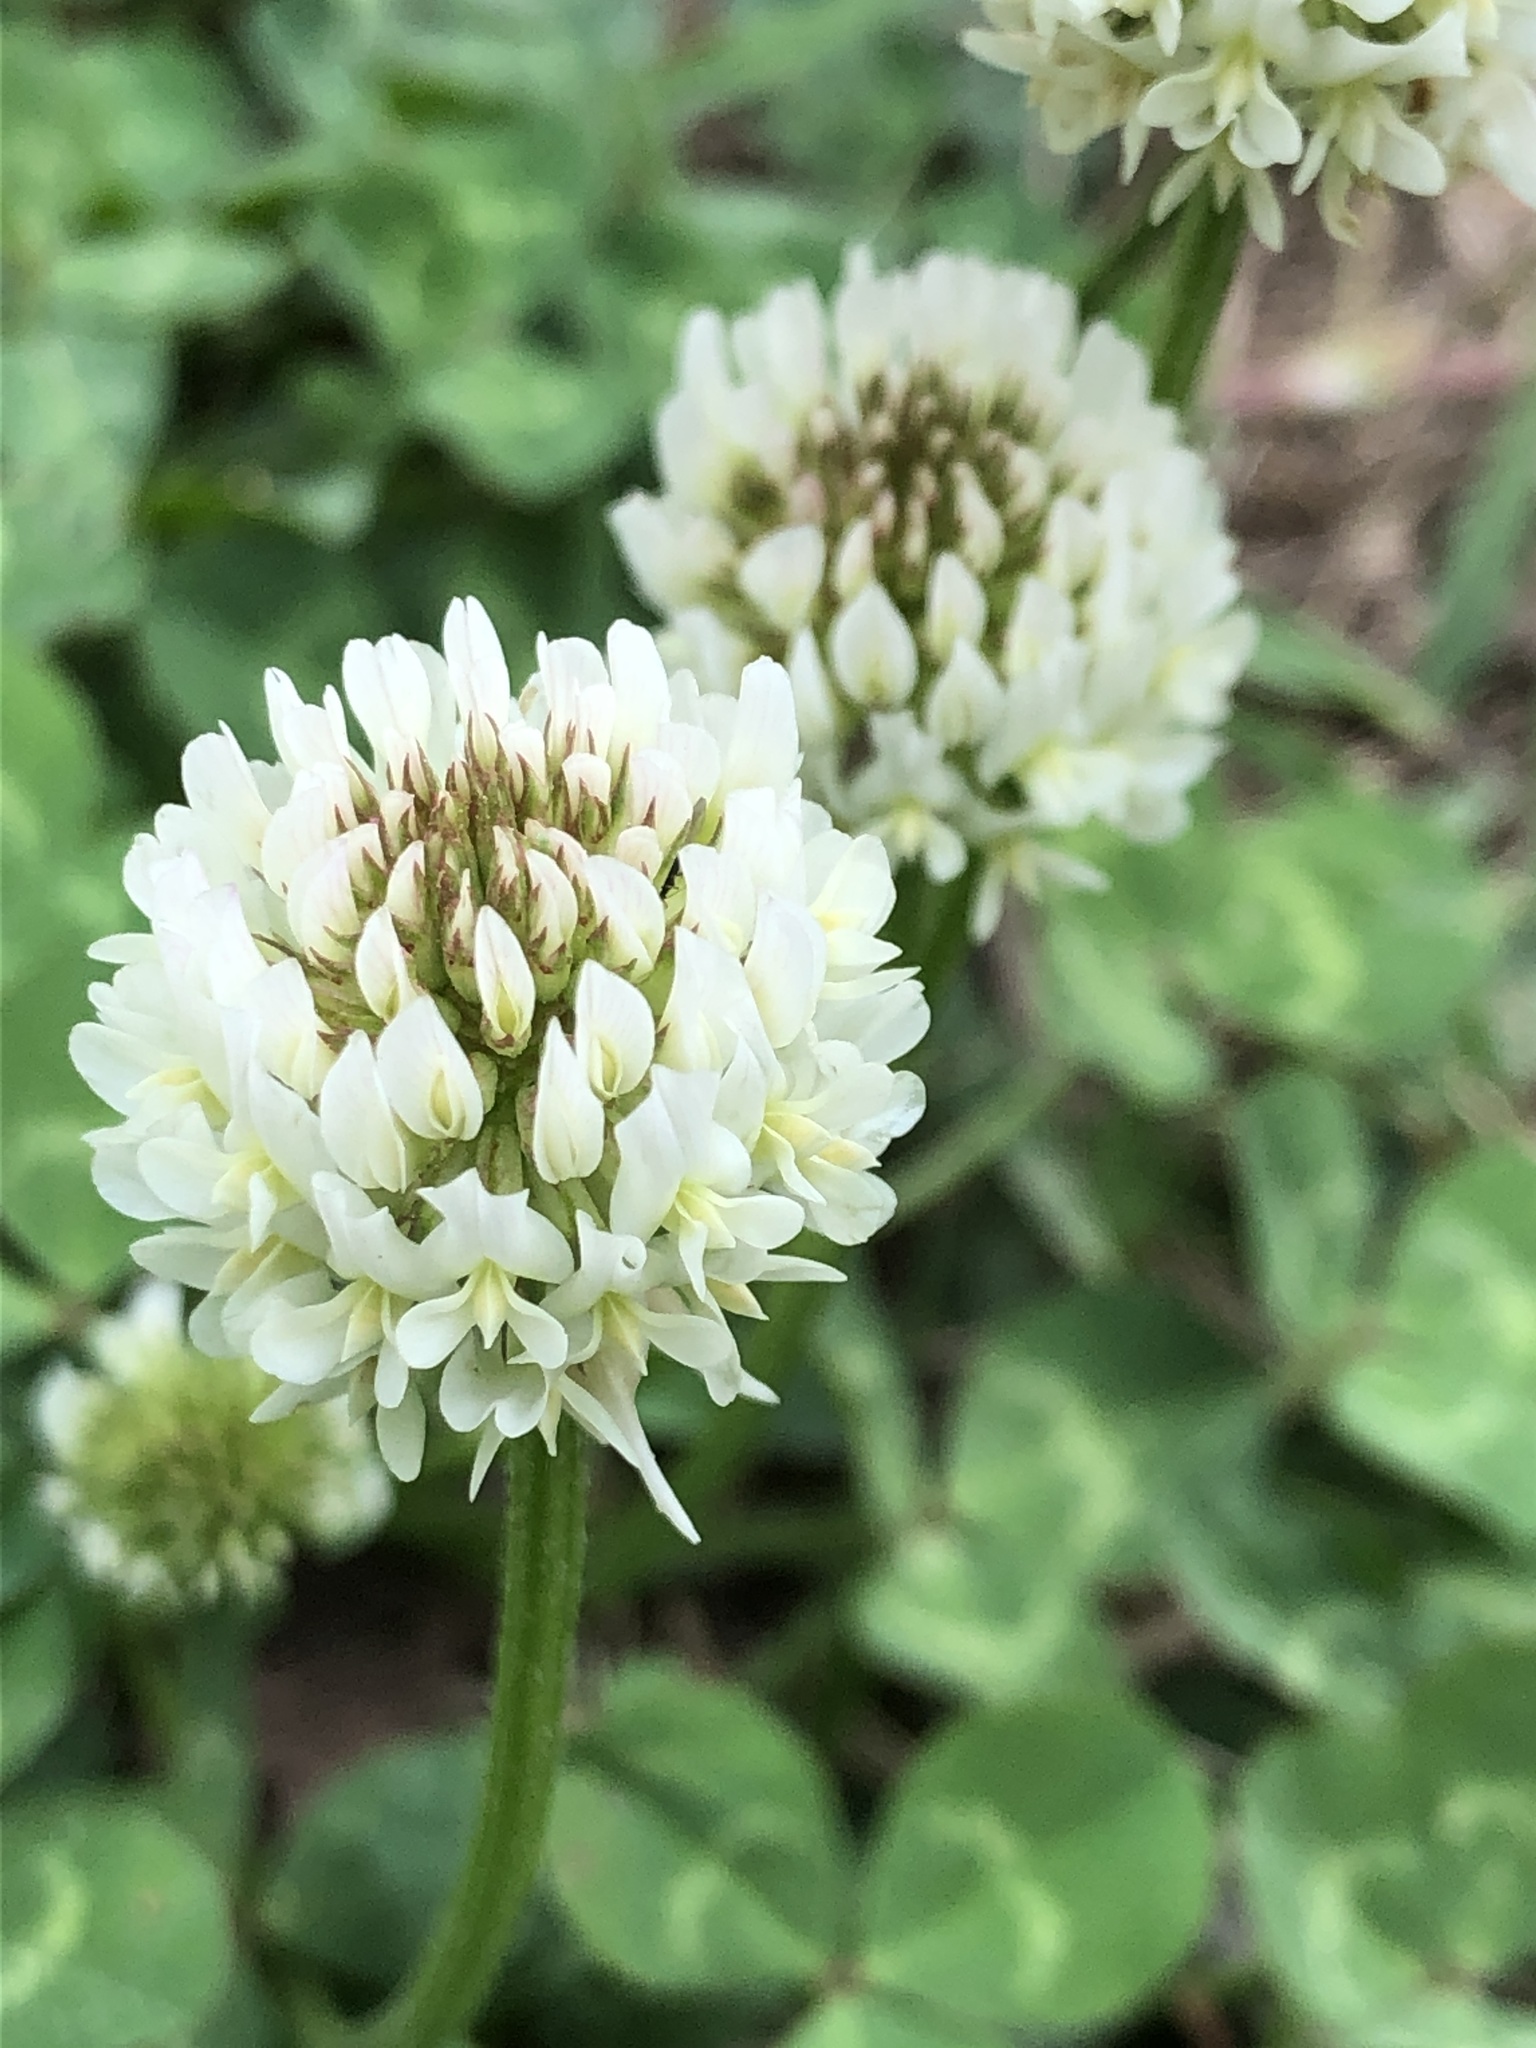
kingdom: Plantae
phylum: Tracheophyta
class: Magnoliopsida
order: Fabales
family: Fabaceae
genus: Trifolium
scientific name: Trifolium repens
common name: White clover
